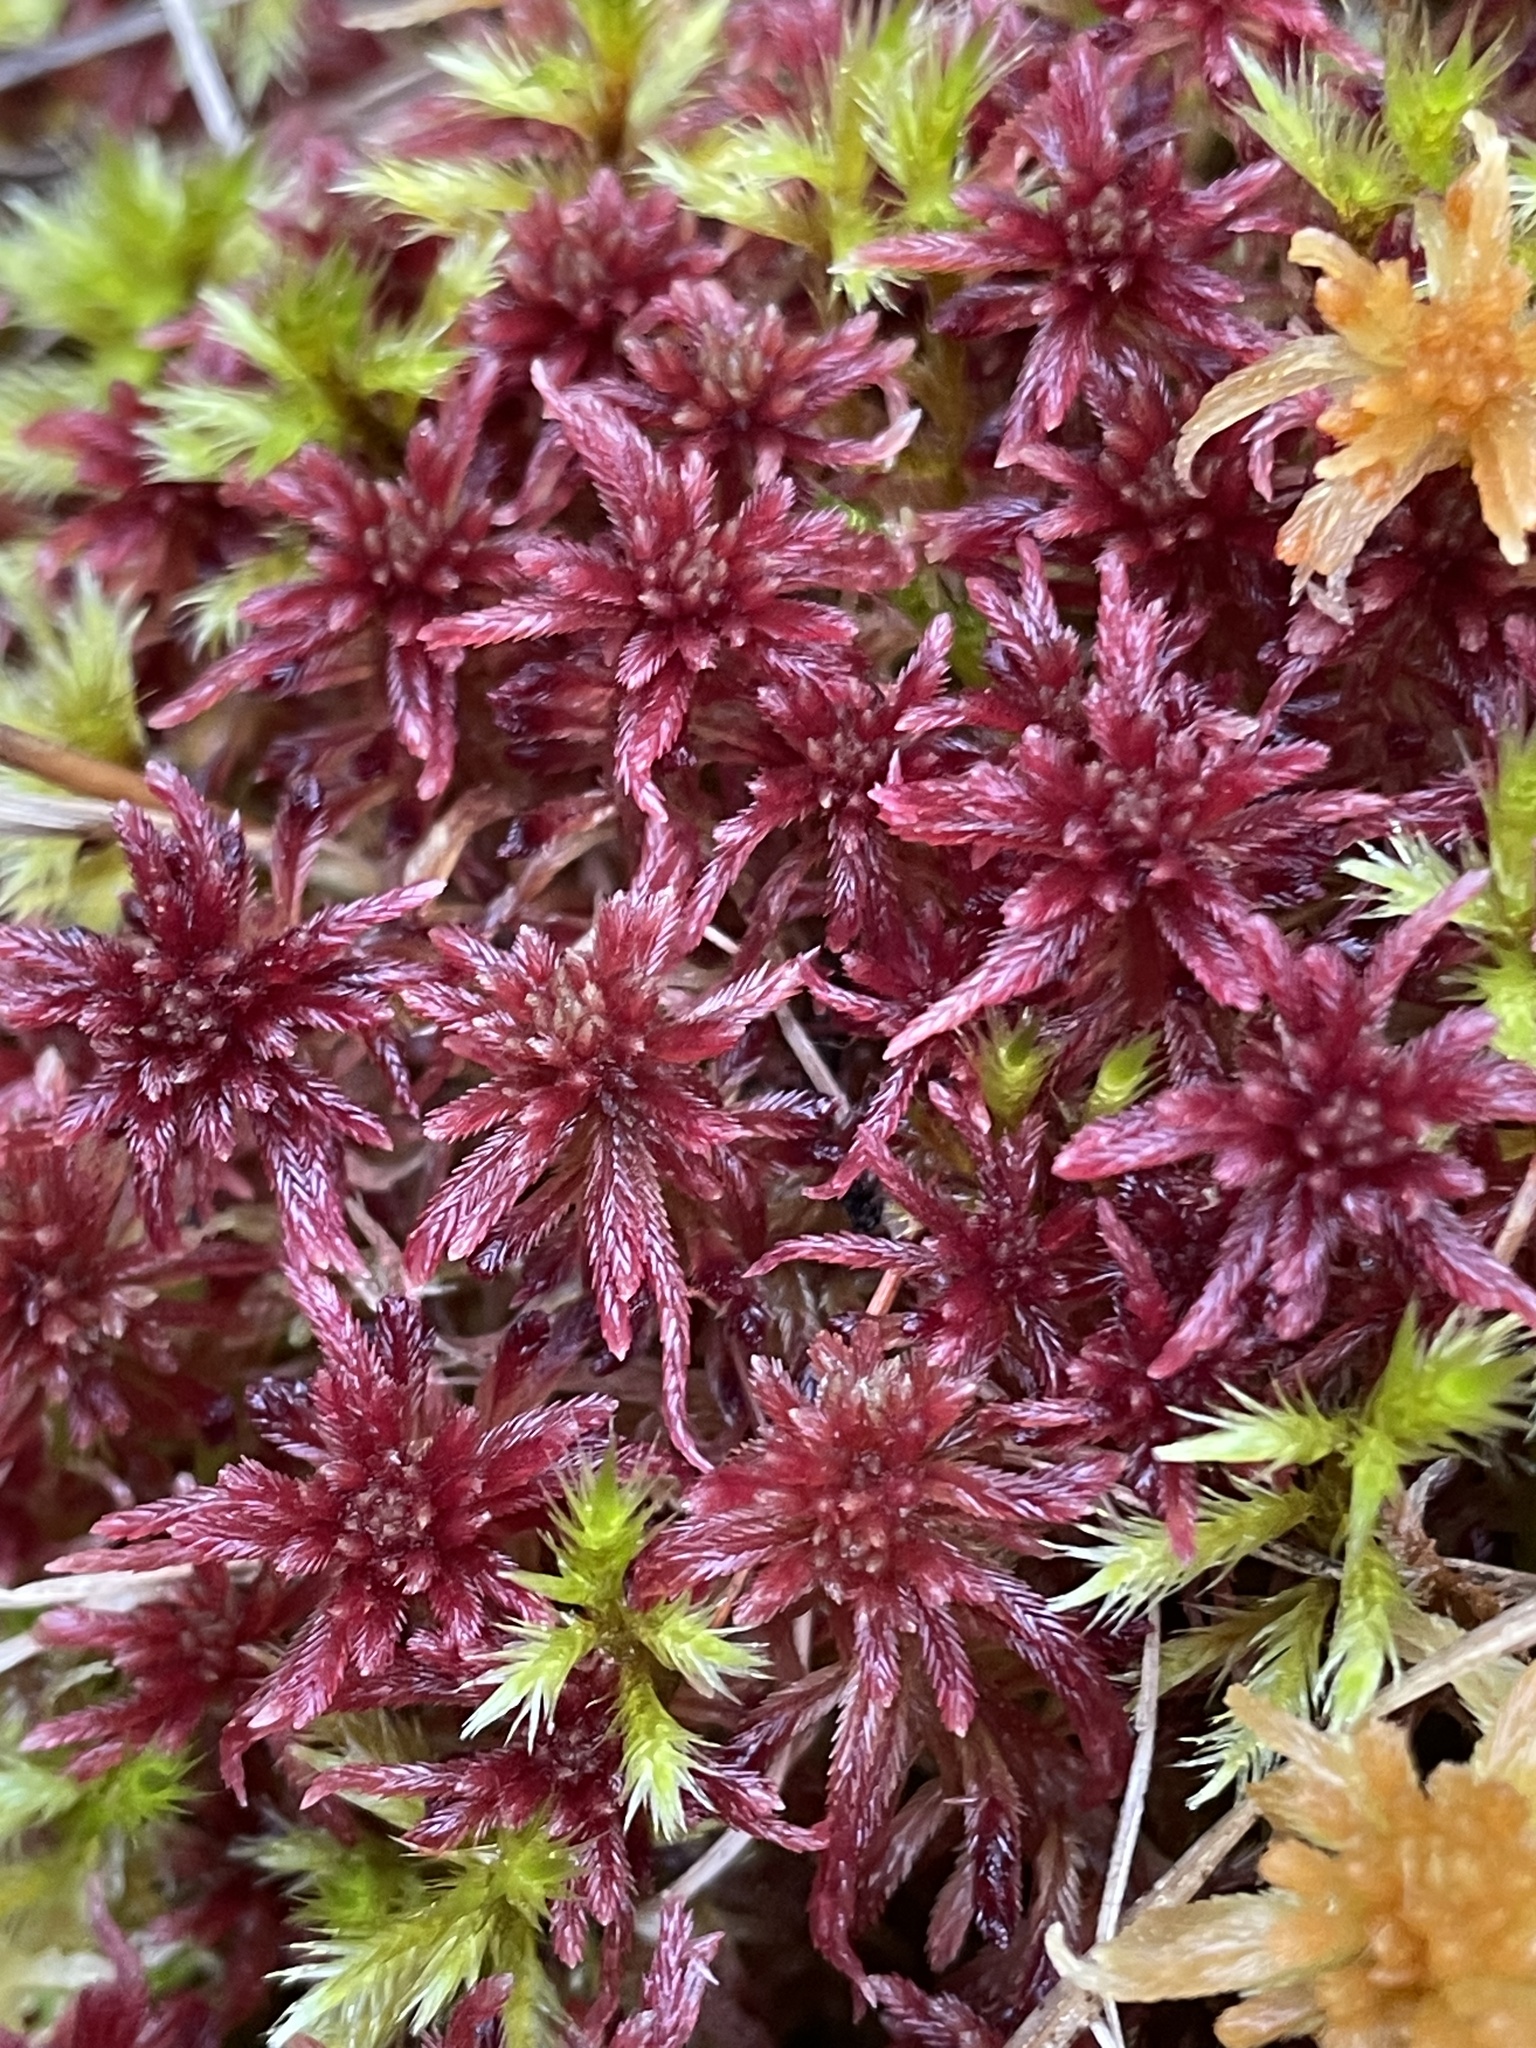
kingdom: Plantae
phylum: Bryophyta
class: Sphagnopsida
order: Sphagnales
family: Sphagnaceae
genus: Sphagnum
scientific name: Sphagnum warnstorfii
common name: Warnstorf's peat moss
